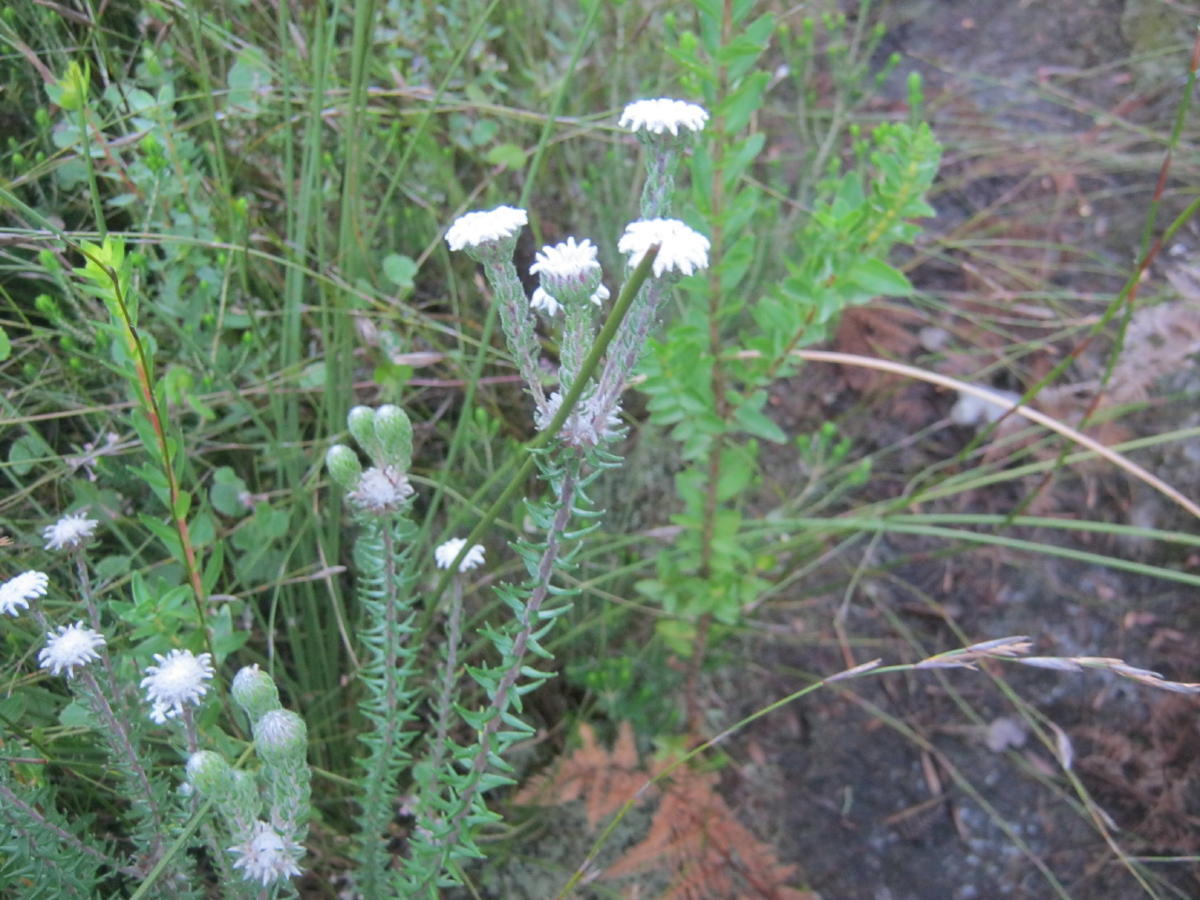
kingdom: Plantae
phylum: Tracheophyta
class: Magnoliopsida
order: Rosales
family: Rhamnaceae
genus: Phylica
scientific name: Phylica curvifolia
